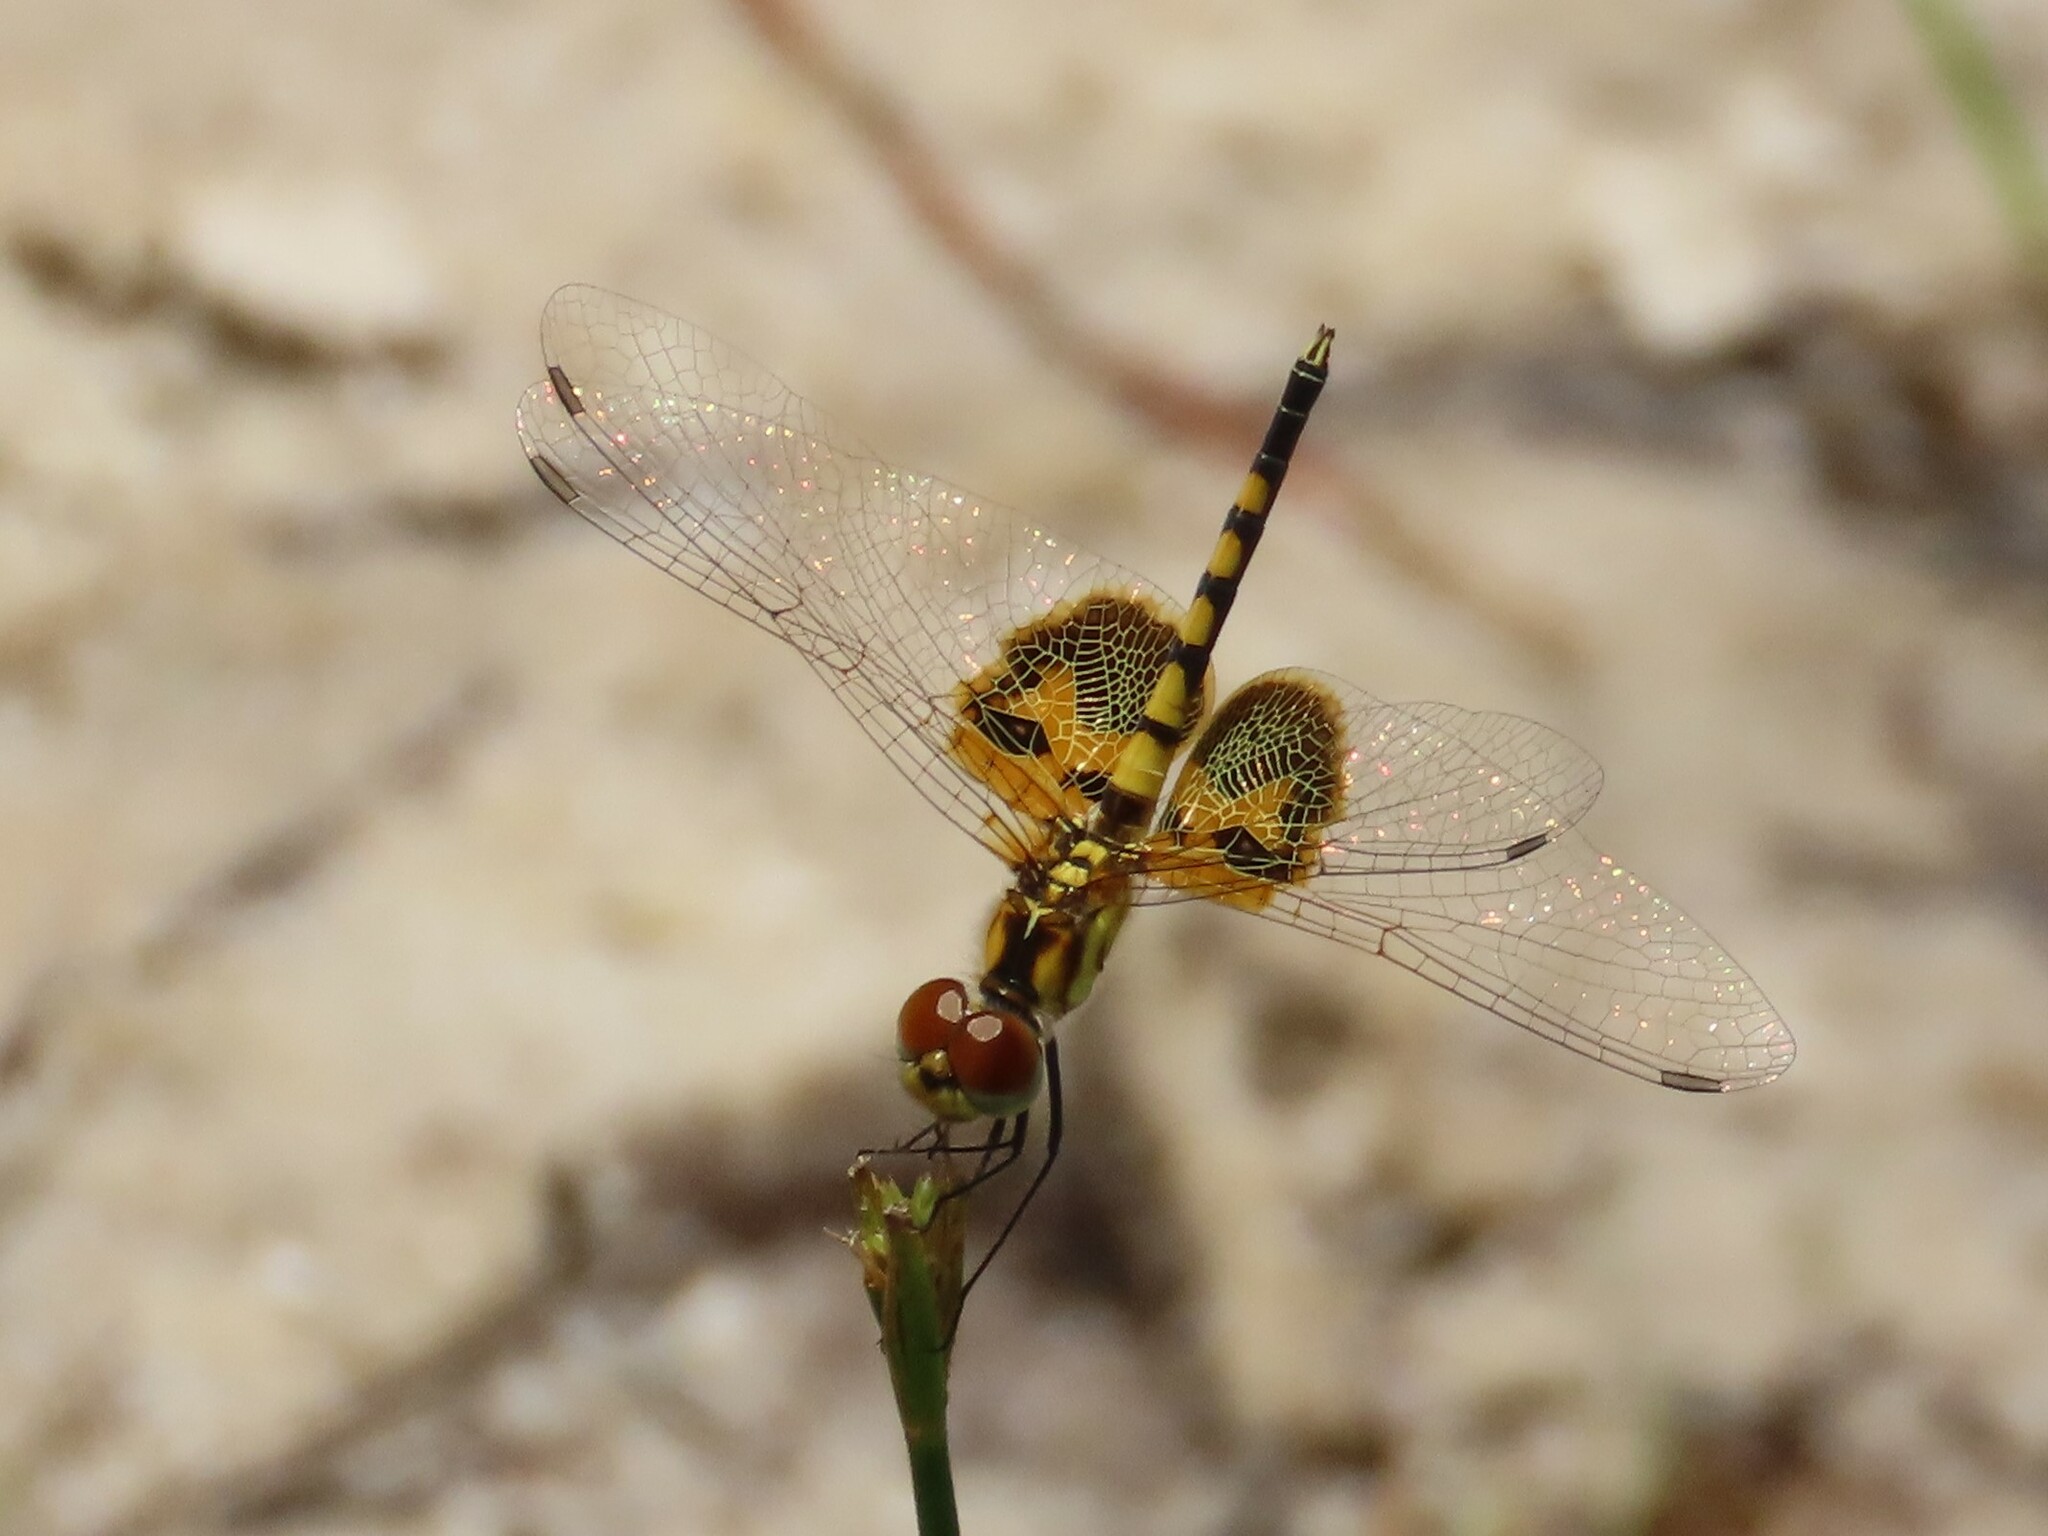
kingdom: Animalia
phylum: Arthropoda
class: Insecta
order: Odonata
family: Libellulidae
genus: Celithemis
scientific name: Celithemis amanda
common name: Amanda's pennant
